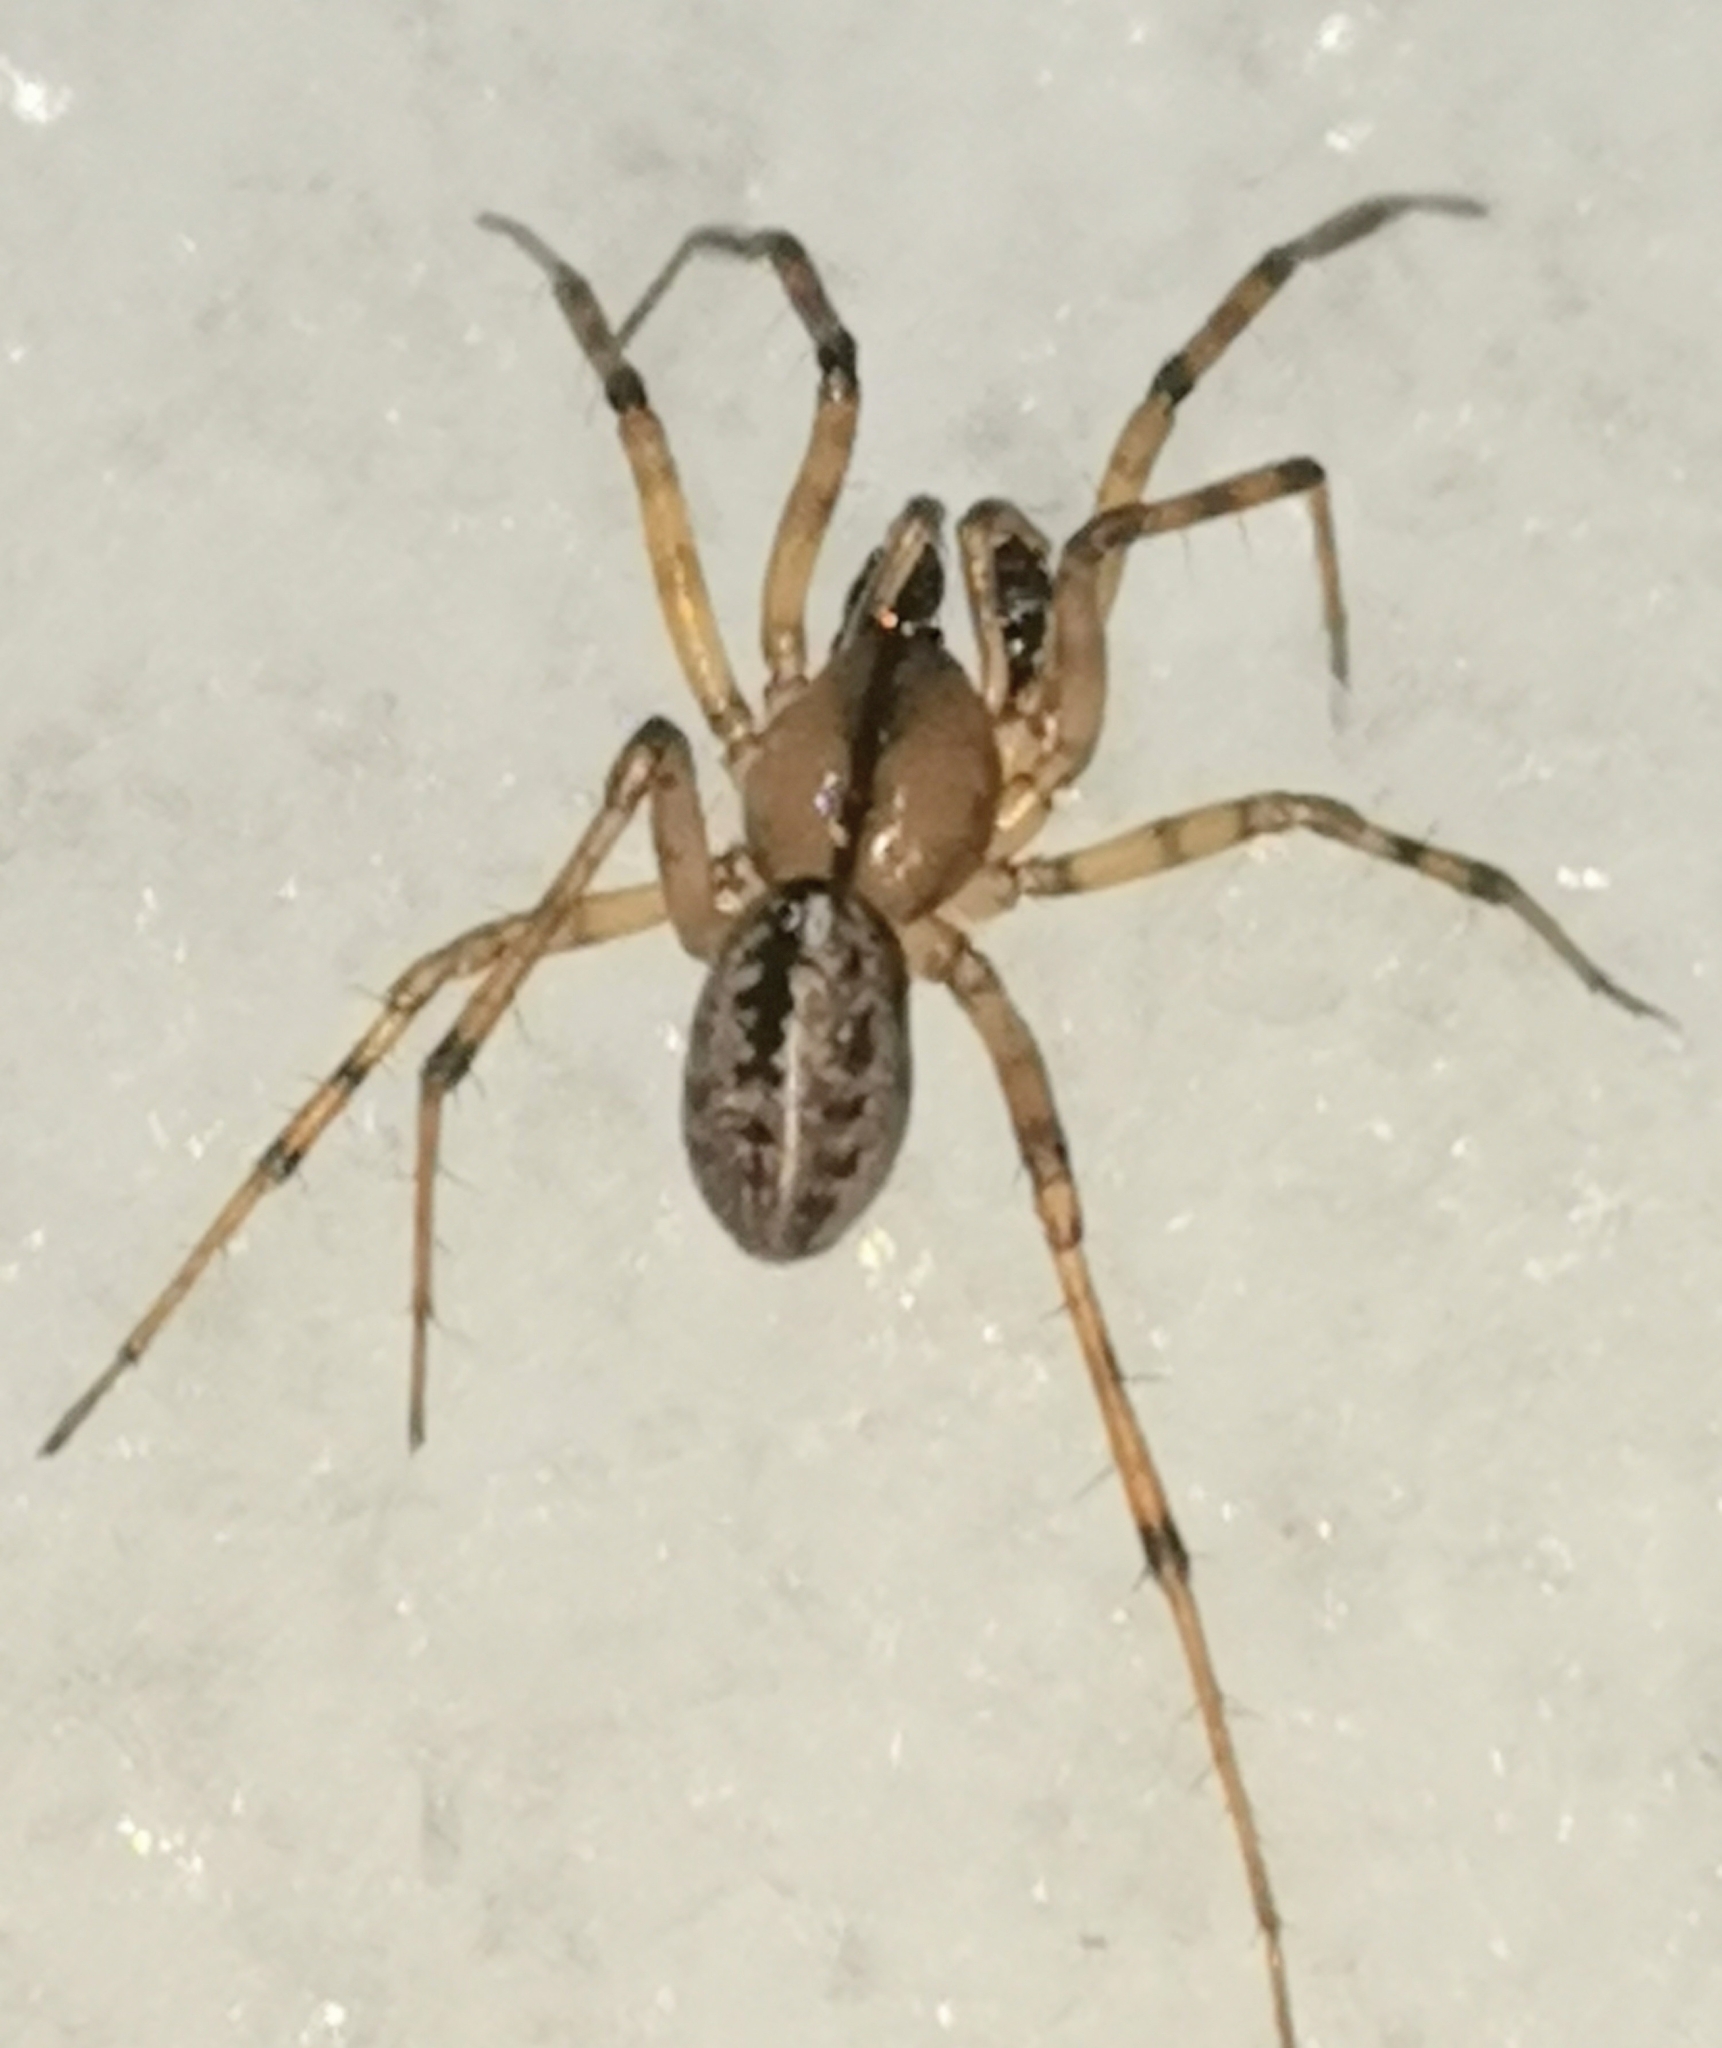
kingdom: Animalia
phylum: Arthropoda
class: Arachnida
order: Araneae
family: Linyphiidae
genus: Stemonyphantes
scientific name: Stemonyphantes lineatus
